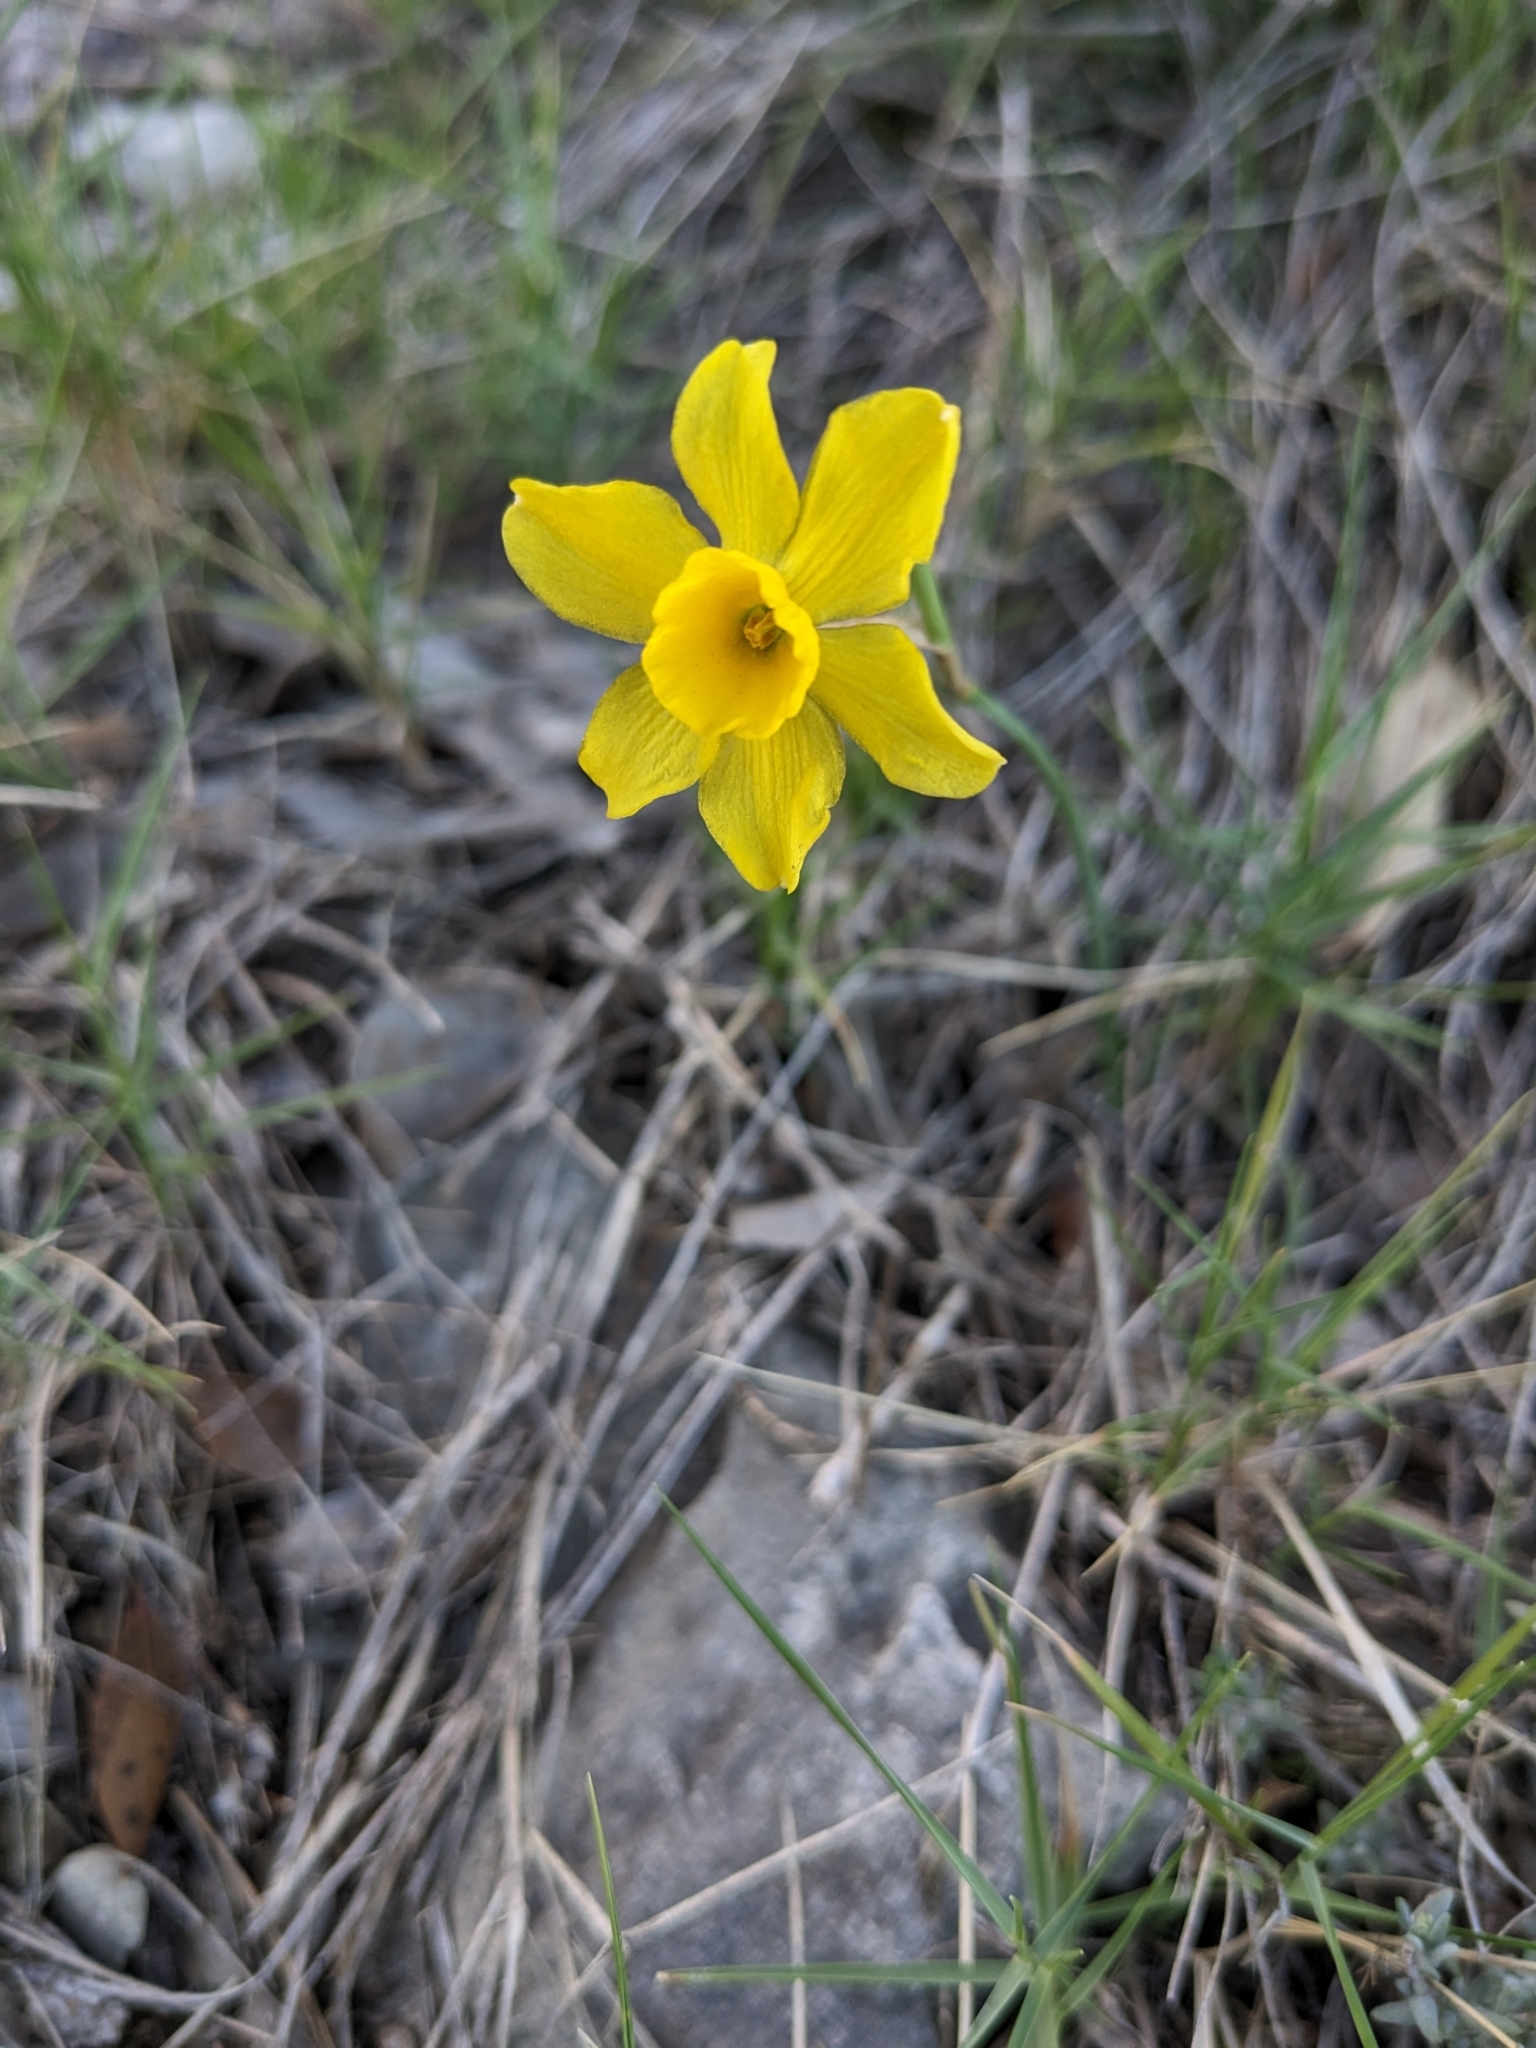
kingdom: Plantae
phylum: Tracheophyta
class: Liliopsida
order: Asparagales
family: Amaryllidaceae
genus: Narcissus
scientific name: Narcissus assoanus
